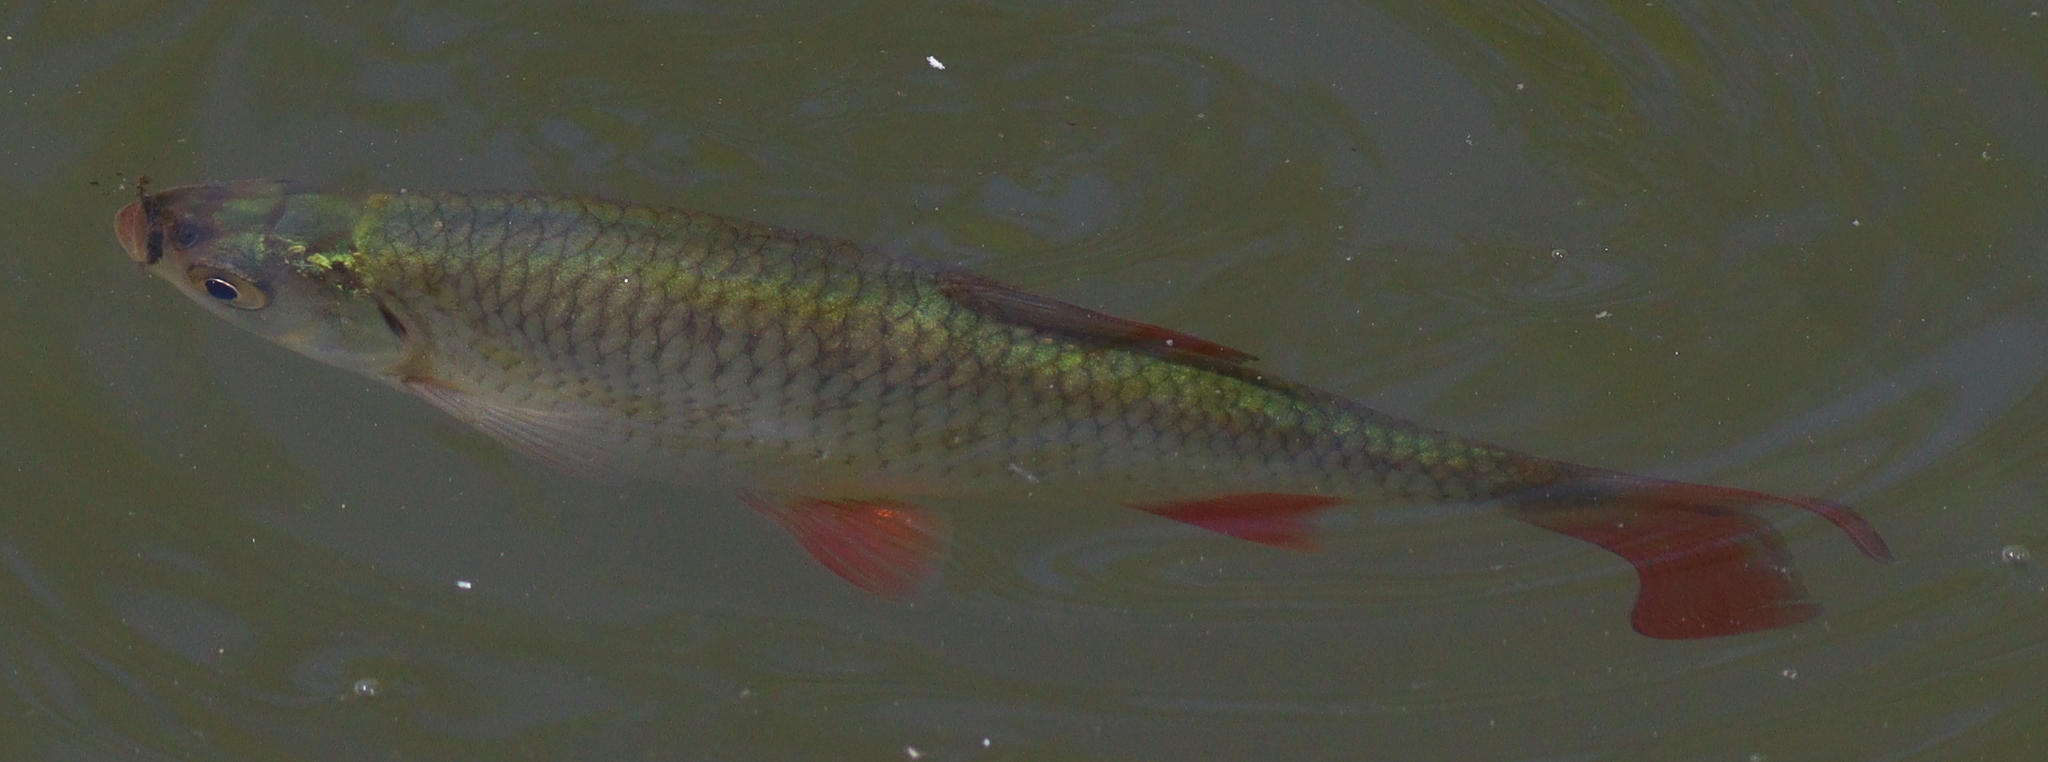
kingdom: Animalia
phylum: Chordata
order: Cypriniformes
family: Cyprinidae
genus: Scardinius
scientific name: Scardinius erythrophthalmus
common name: Rudd
